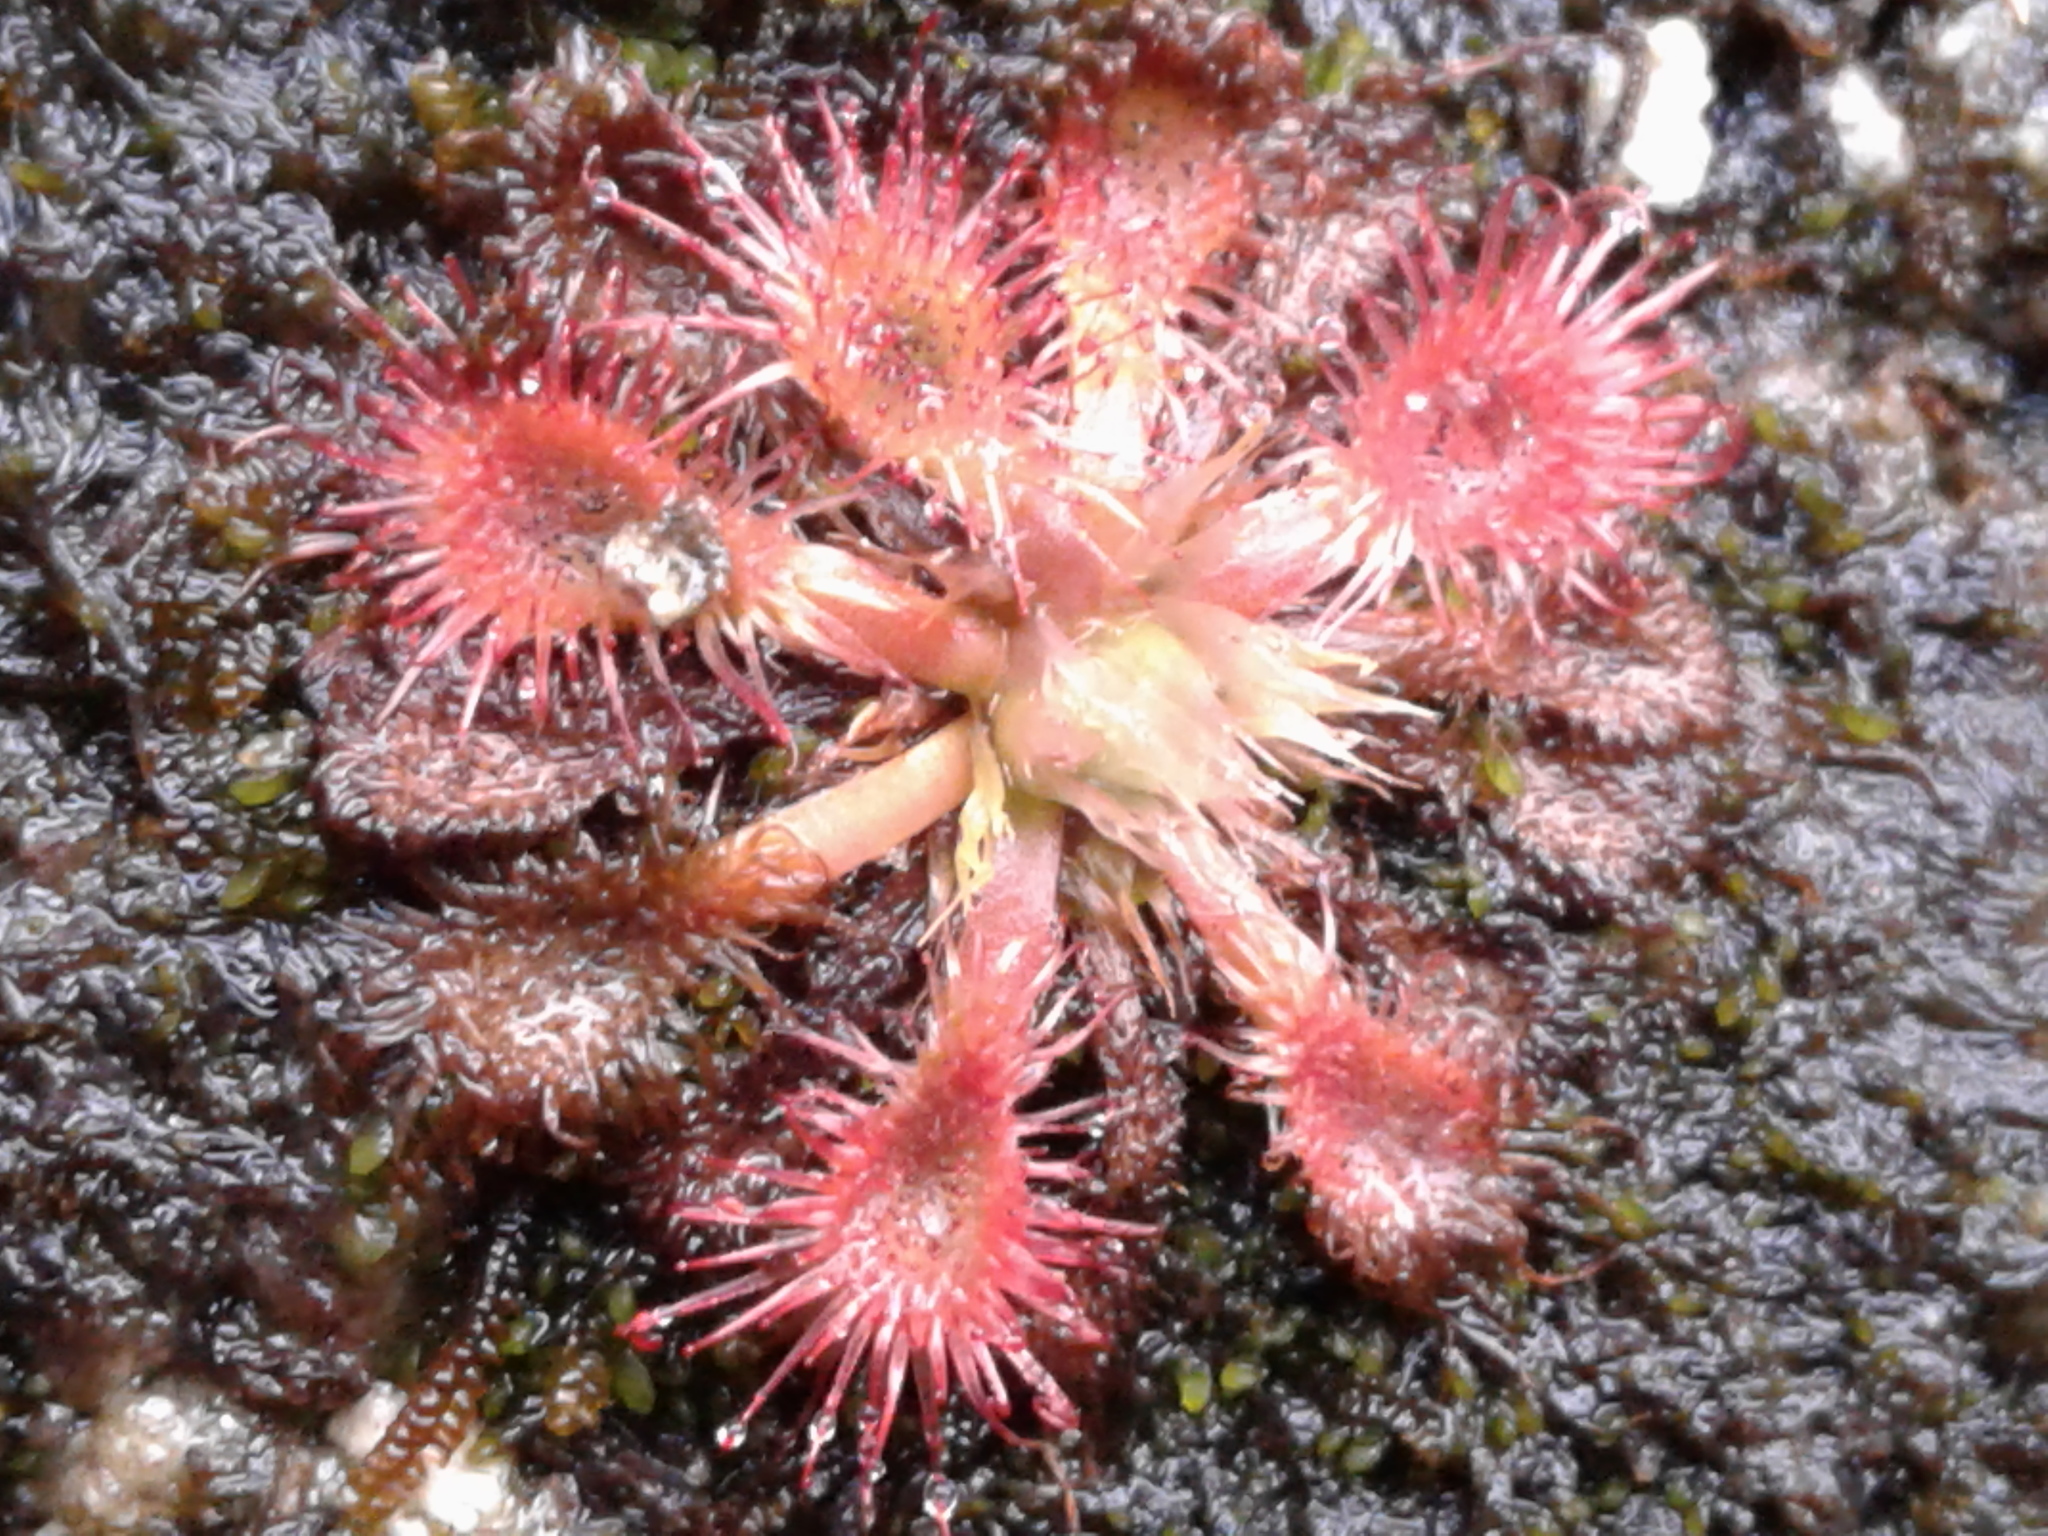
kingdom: Plantae
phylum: Tracheophyta
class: Magnoliopsida
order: Caryophyllales
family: Droseraceae
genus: Drosera
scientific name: Drosera spatulata
